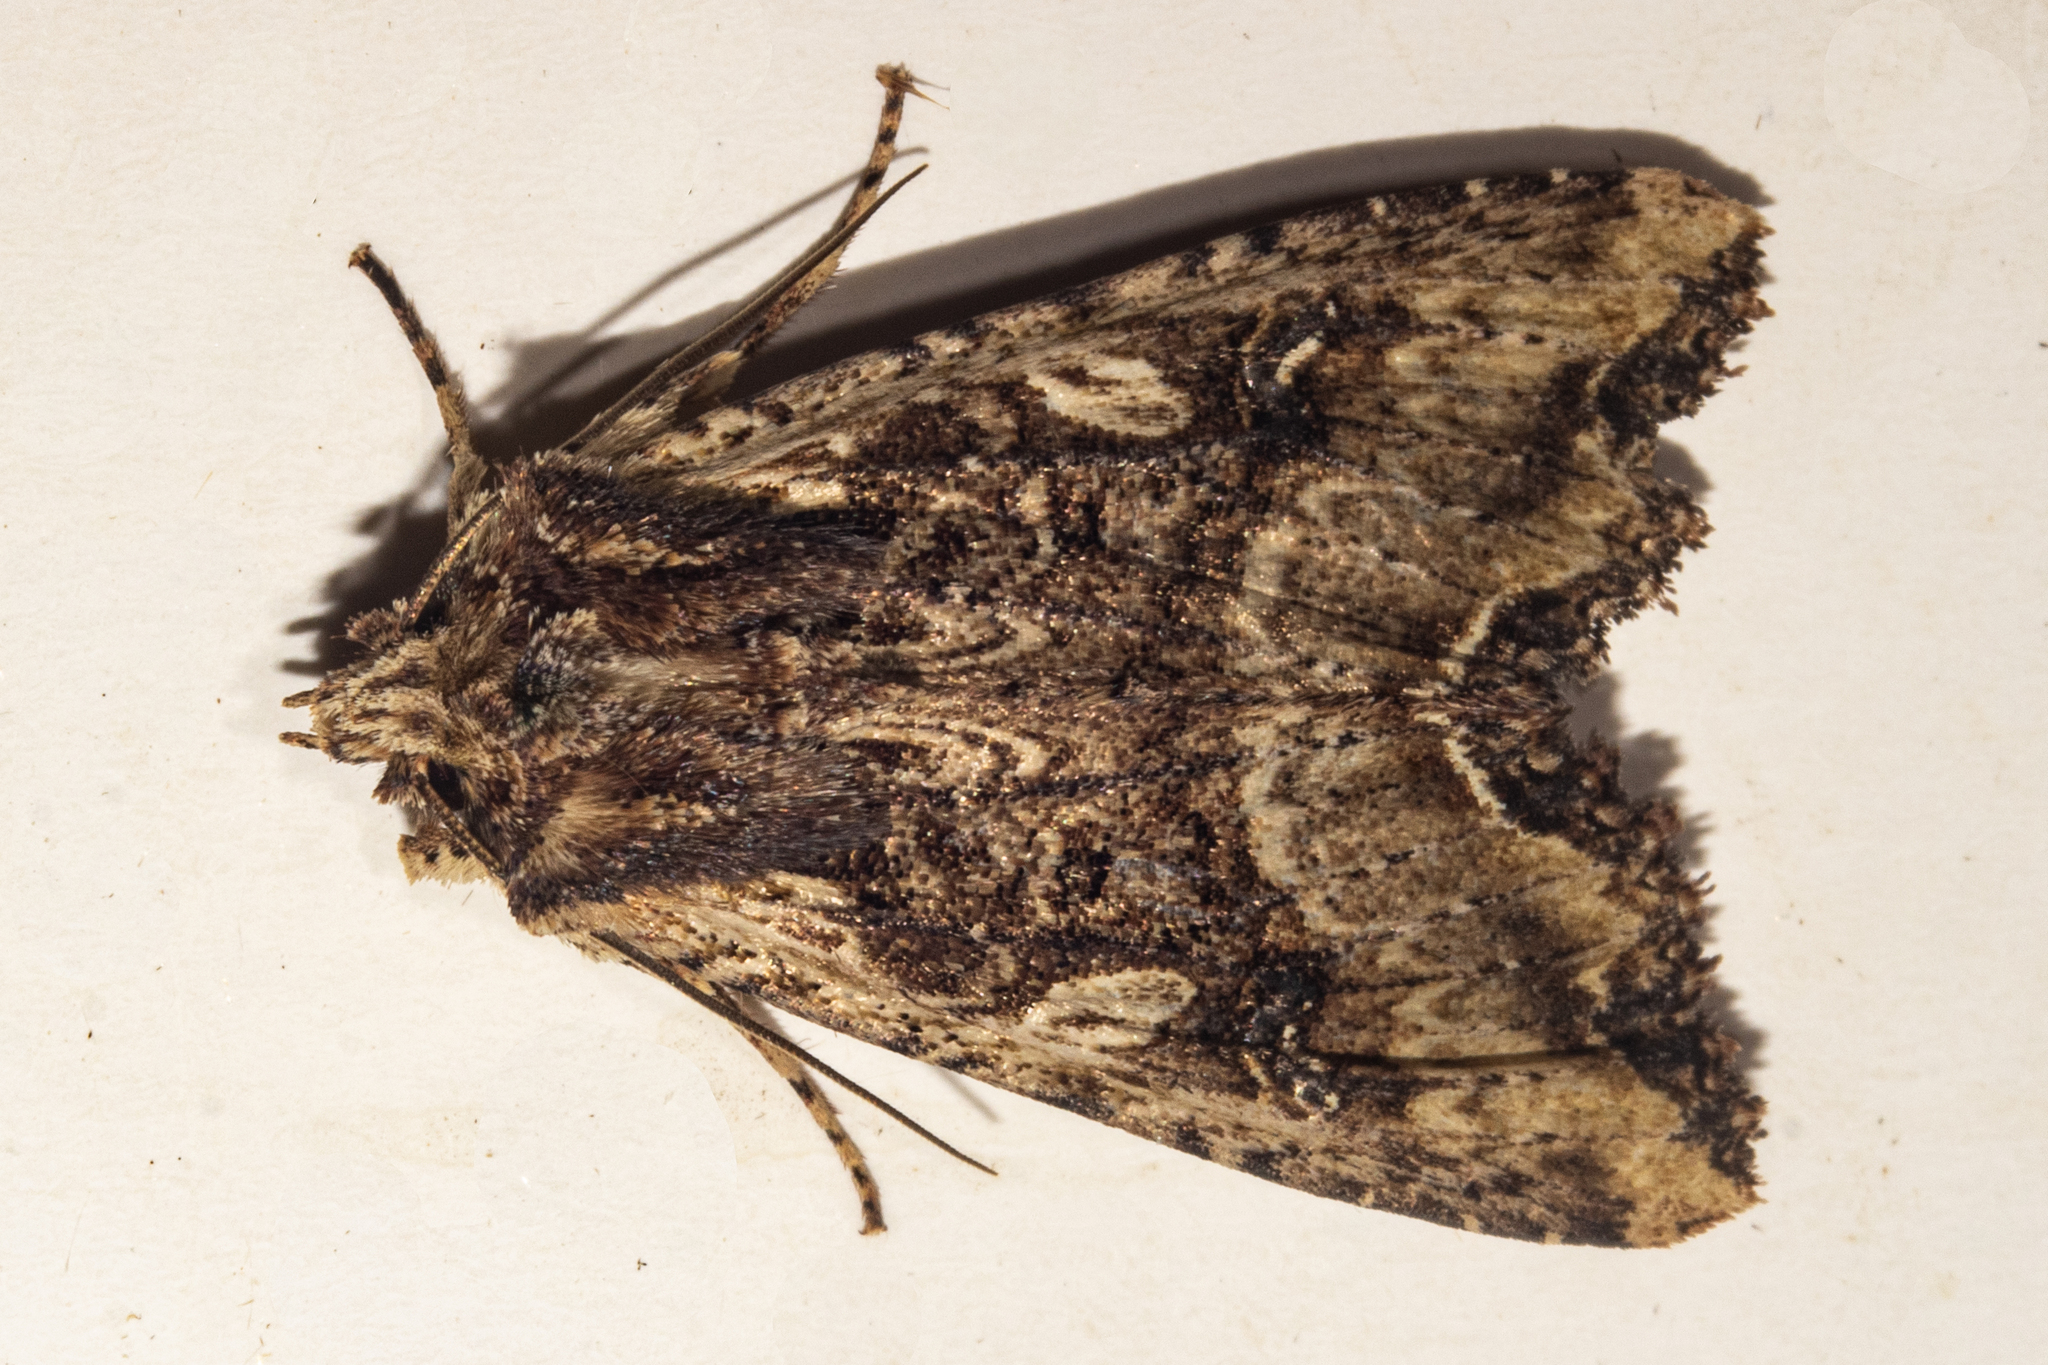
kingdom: Animalia
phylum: Arthropoda
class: Insecta
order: Lepidoptera
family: Noctuidae
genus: Meterana
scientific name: Meterana stipata
